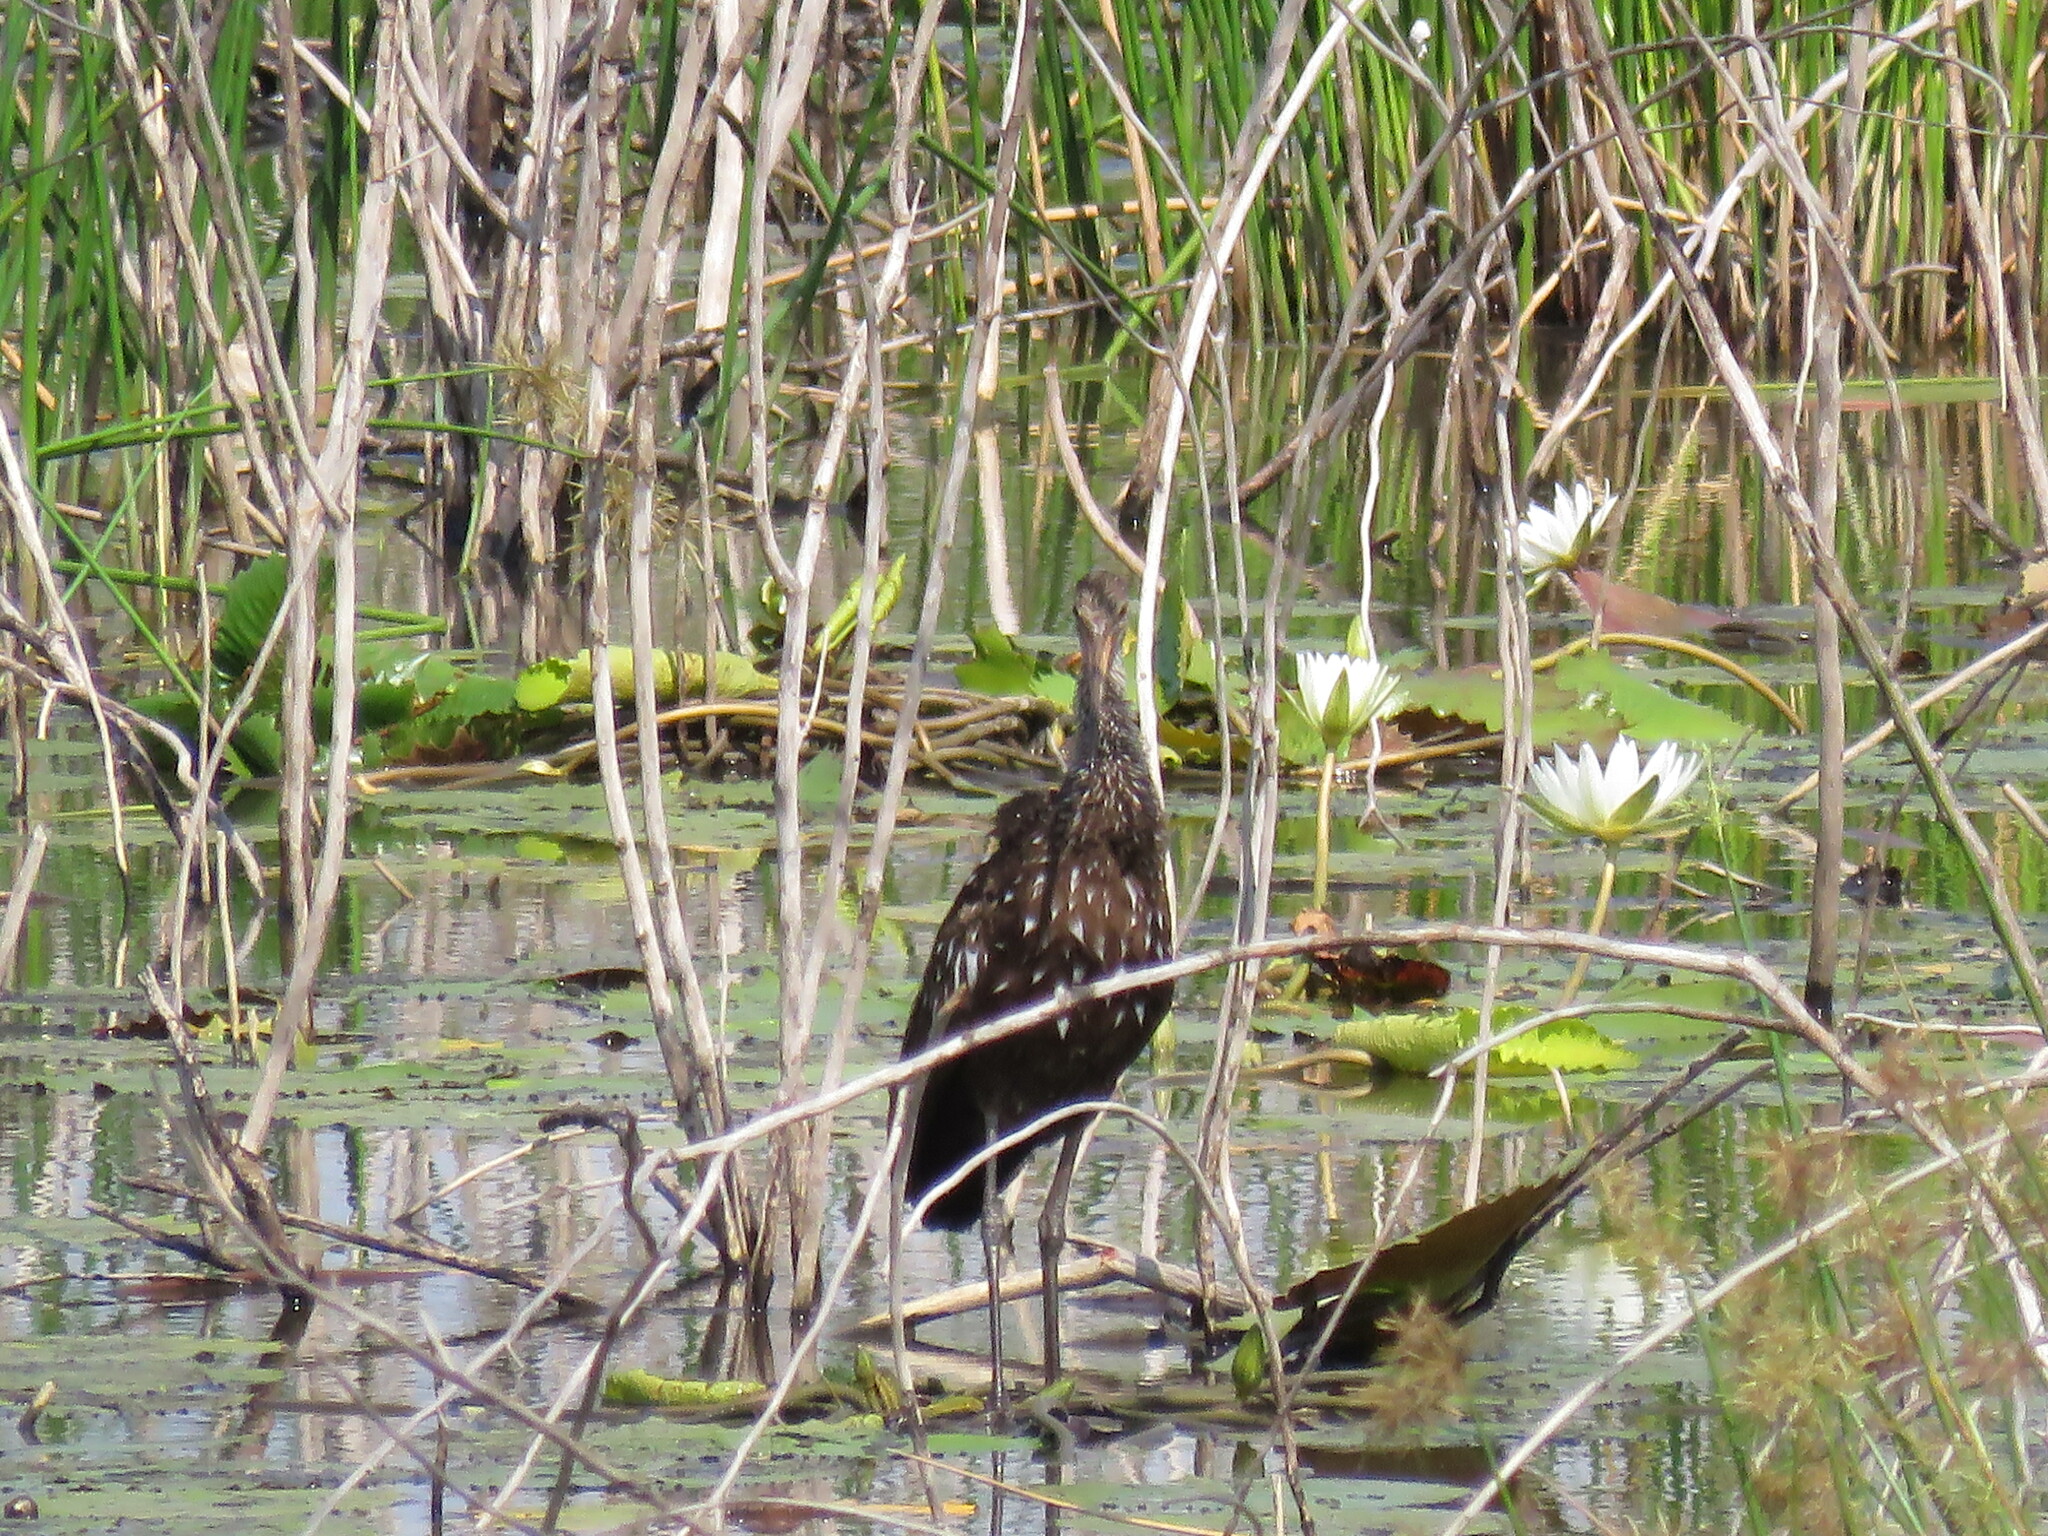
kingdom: Animalia
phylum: Chordata
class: Aves
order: Gruiformes
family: Aramidae
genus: Aramus
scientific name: Aramus guarauna
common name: Limpkin
